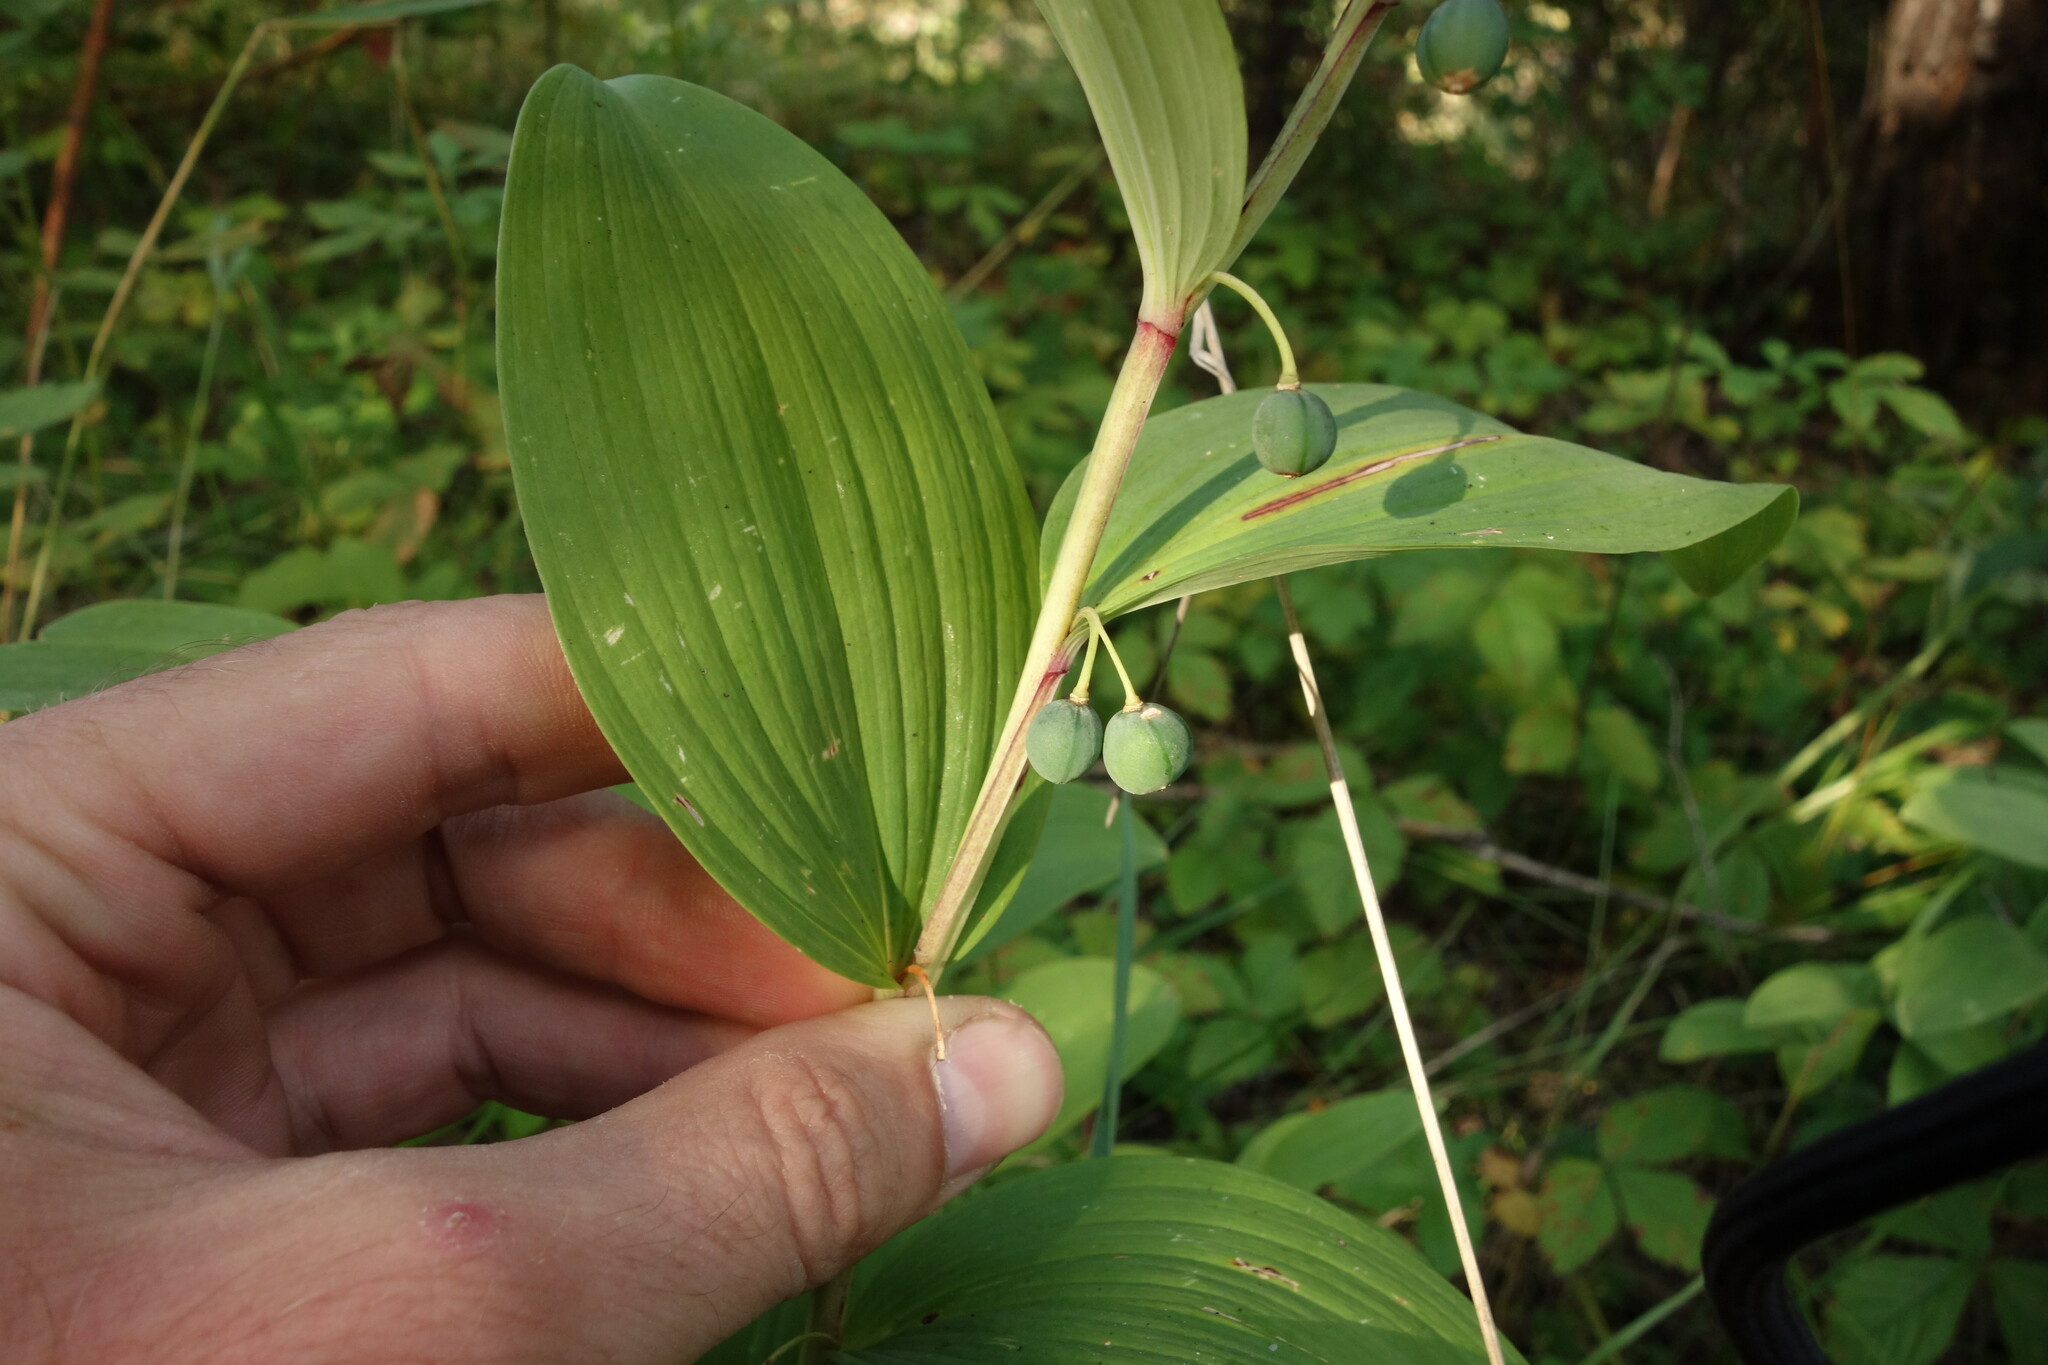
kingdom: Plantae
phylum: Tracheophyta
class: Liliopsida
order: Asparagales
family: Asparagaceae
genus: Polygonatum
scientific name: Polygonatum odoratum
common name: Angular solomon's-seal
